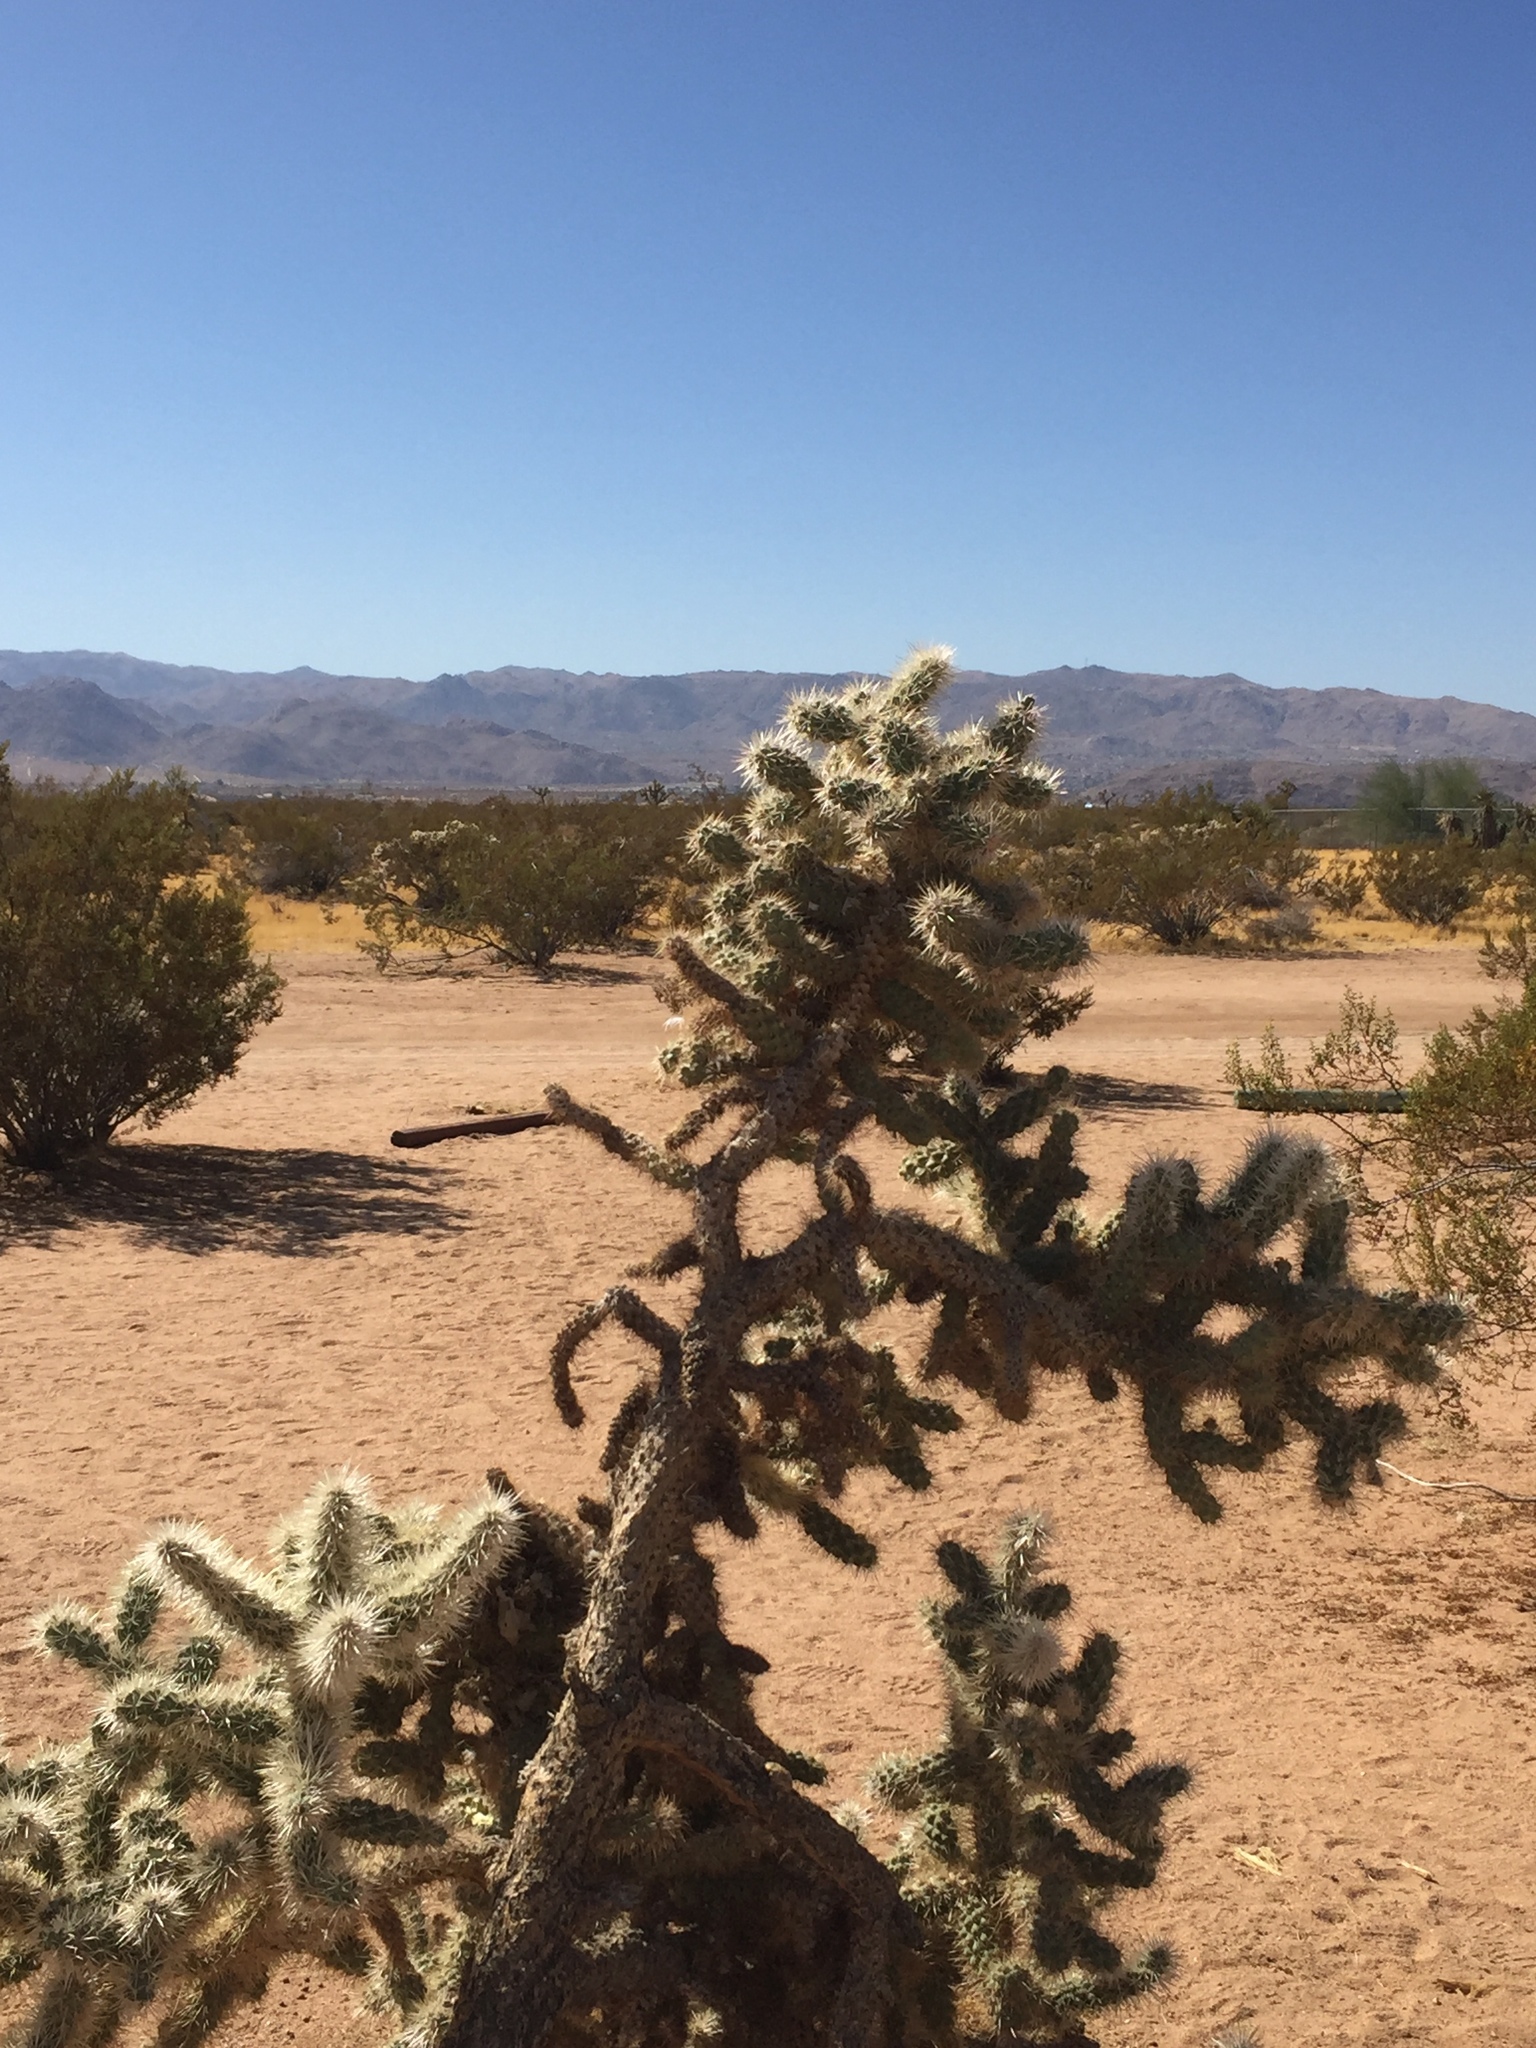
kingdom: Plantae
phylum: Tracheophyta
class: Magnoliopsida
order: Caryophyllales
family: Cactaceae
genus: Cylindropuntia
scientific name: Cylindropuntia echinocarpa
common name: Ground cholla
